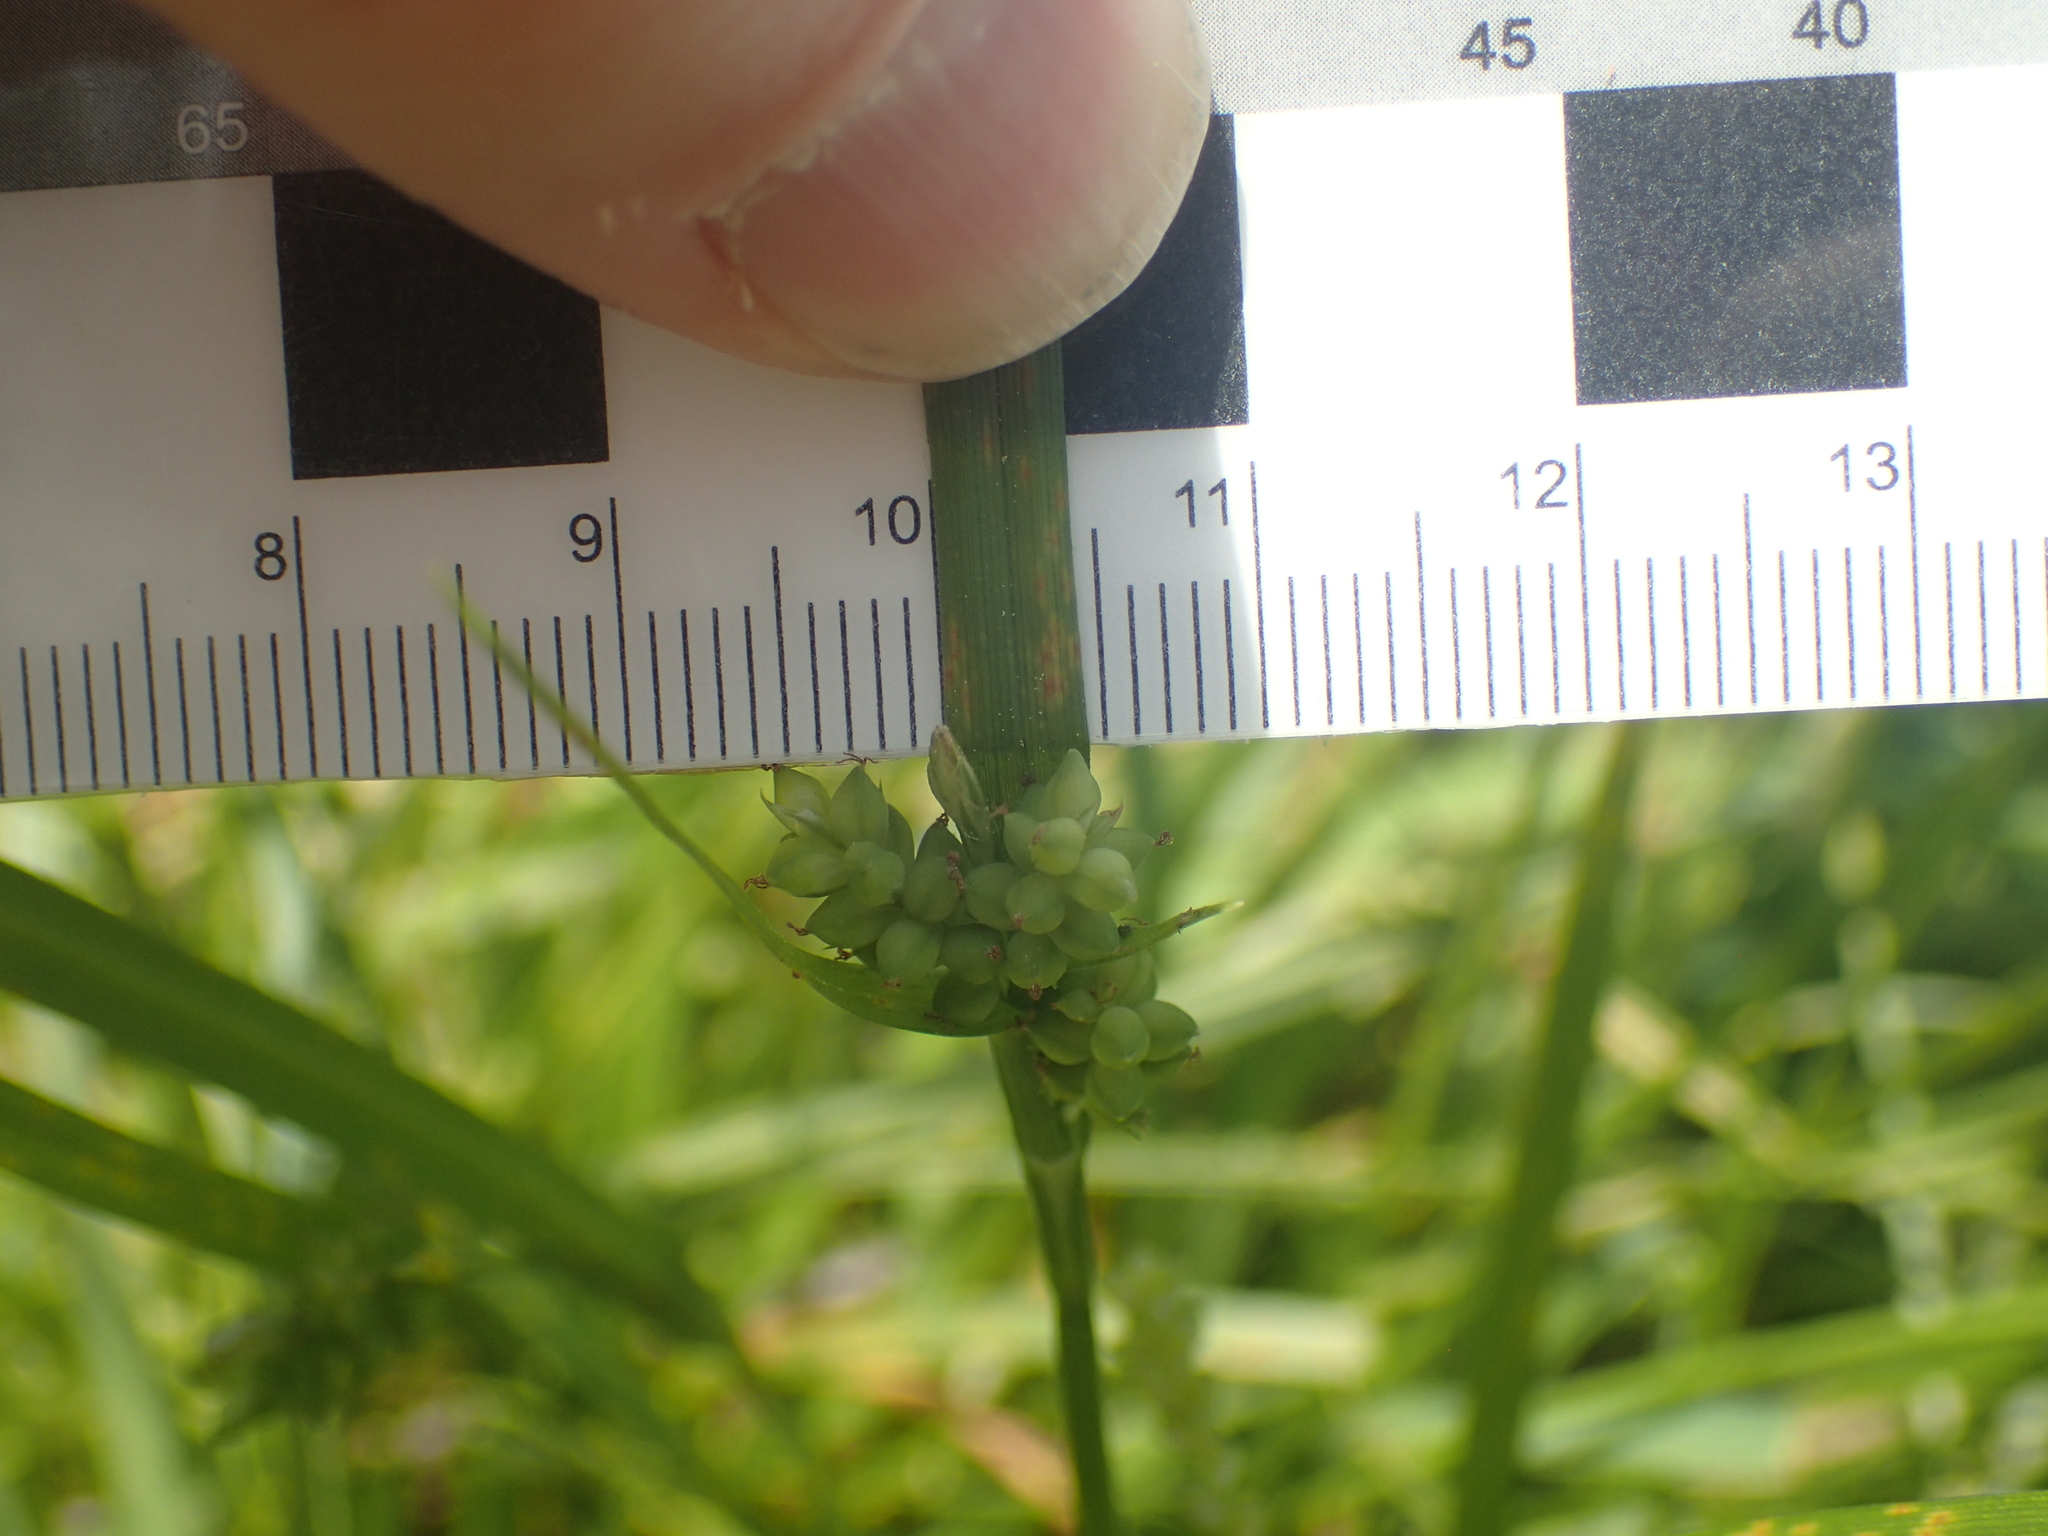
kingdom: Plantae
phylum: Tracheophyta
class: Liliopsida
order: Poales
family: Cyperaceae
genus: Carex
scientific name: Carex blanda
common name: Bland sedge
